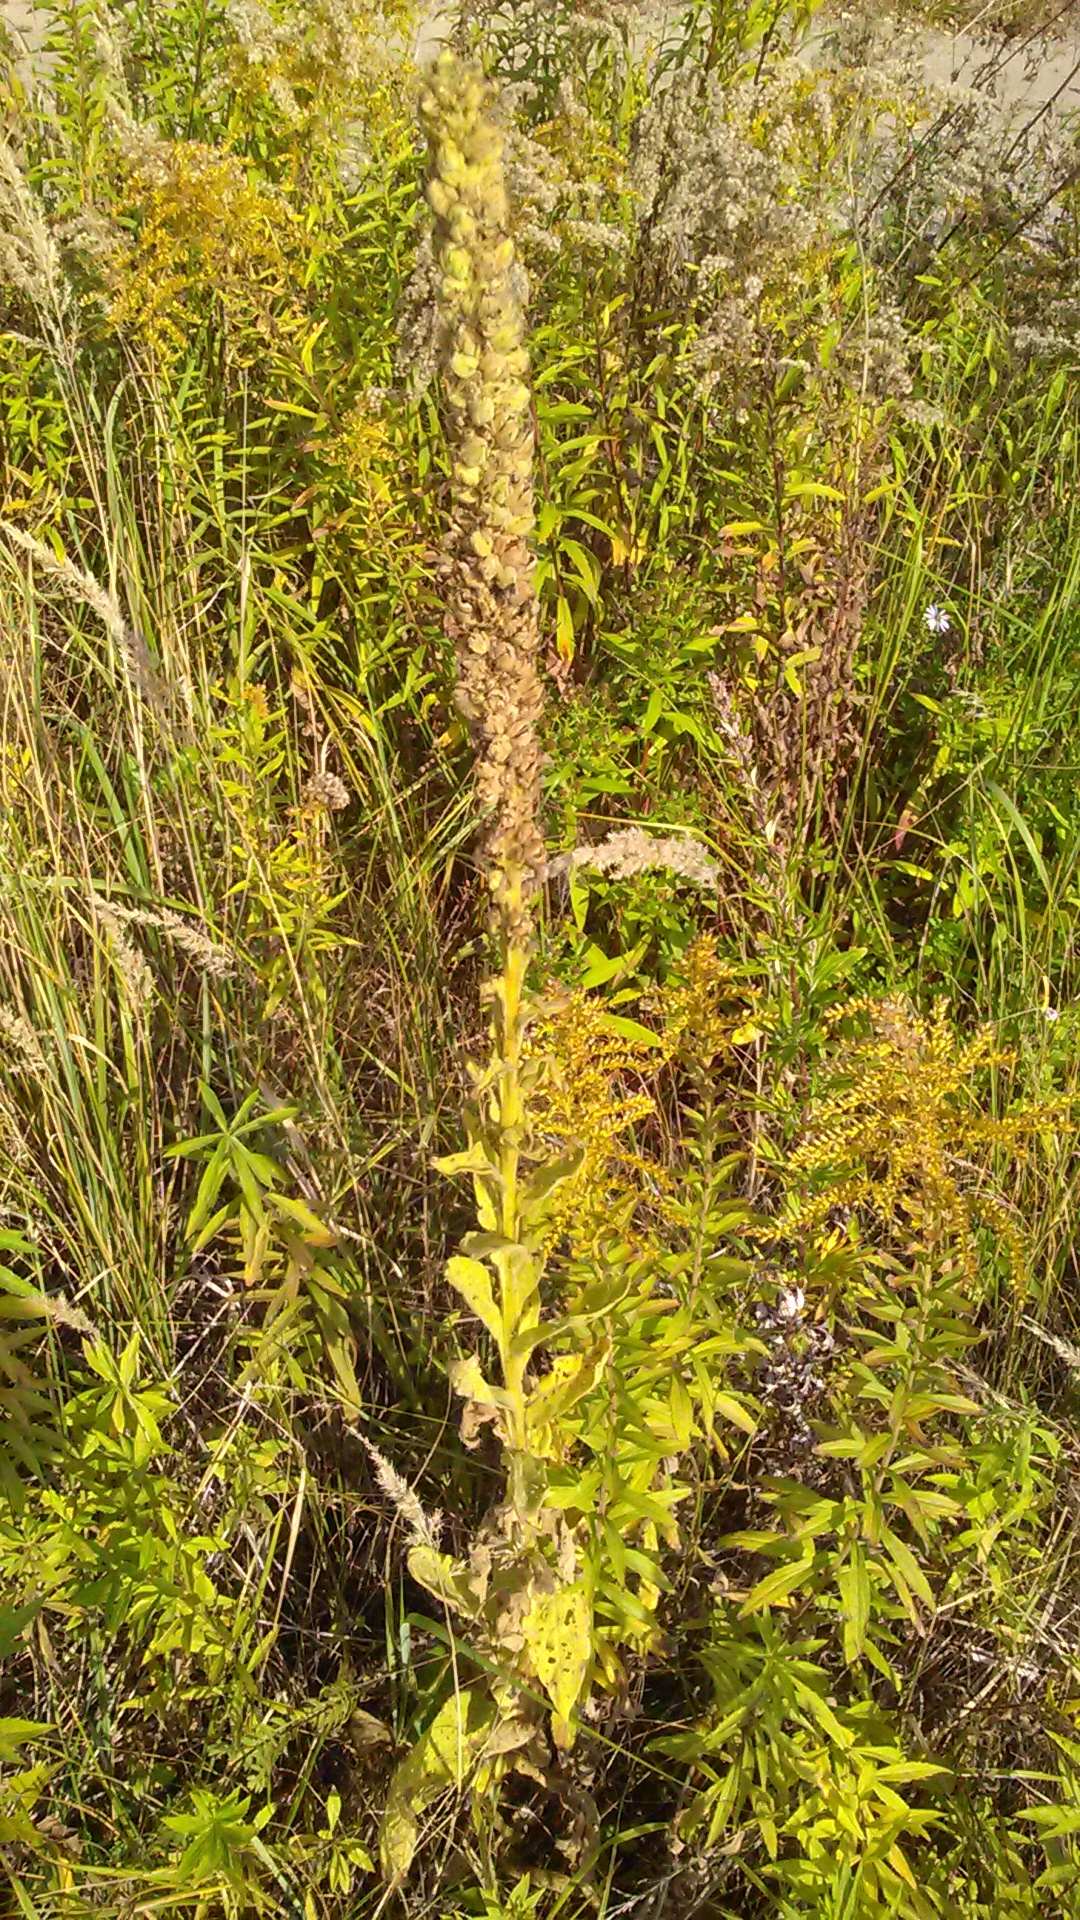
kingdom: Plantae
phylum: Tracheophyta
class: Magnoliopsida
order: Lamiales
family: Scrophulariaceae
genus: Verbascum
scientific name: Verbascum thapsus
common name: Common mullein
